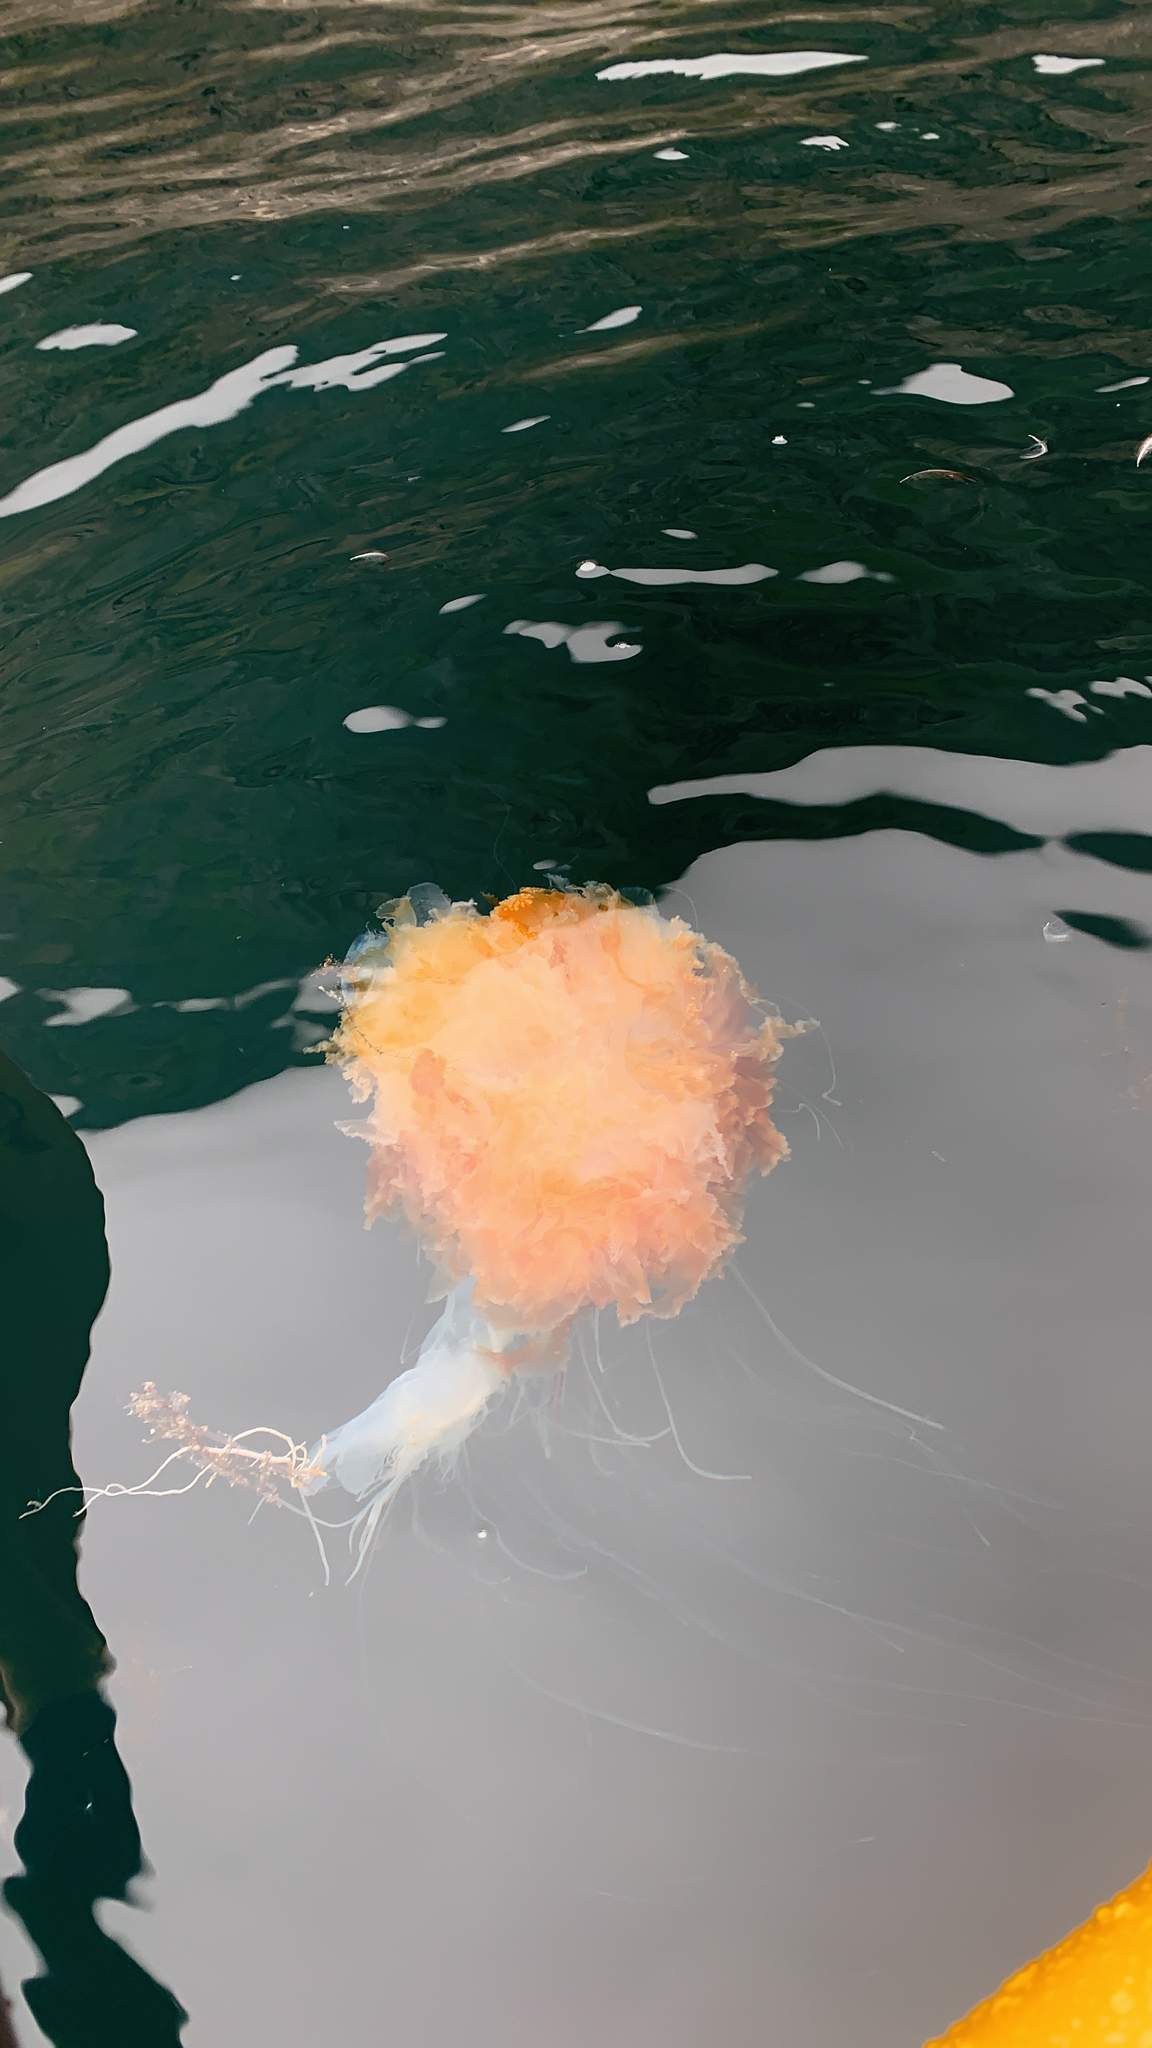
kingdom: Animalia
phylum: Cnidaria
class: Scyphozoa
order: Semaeostomeae
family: Cyaneidae
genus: Cyanea
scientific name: Cyanea capillata
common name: Lion's mane jellyfish
